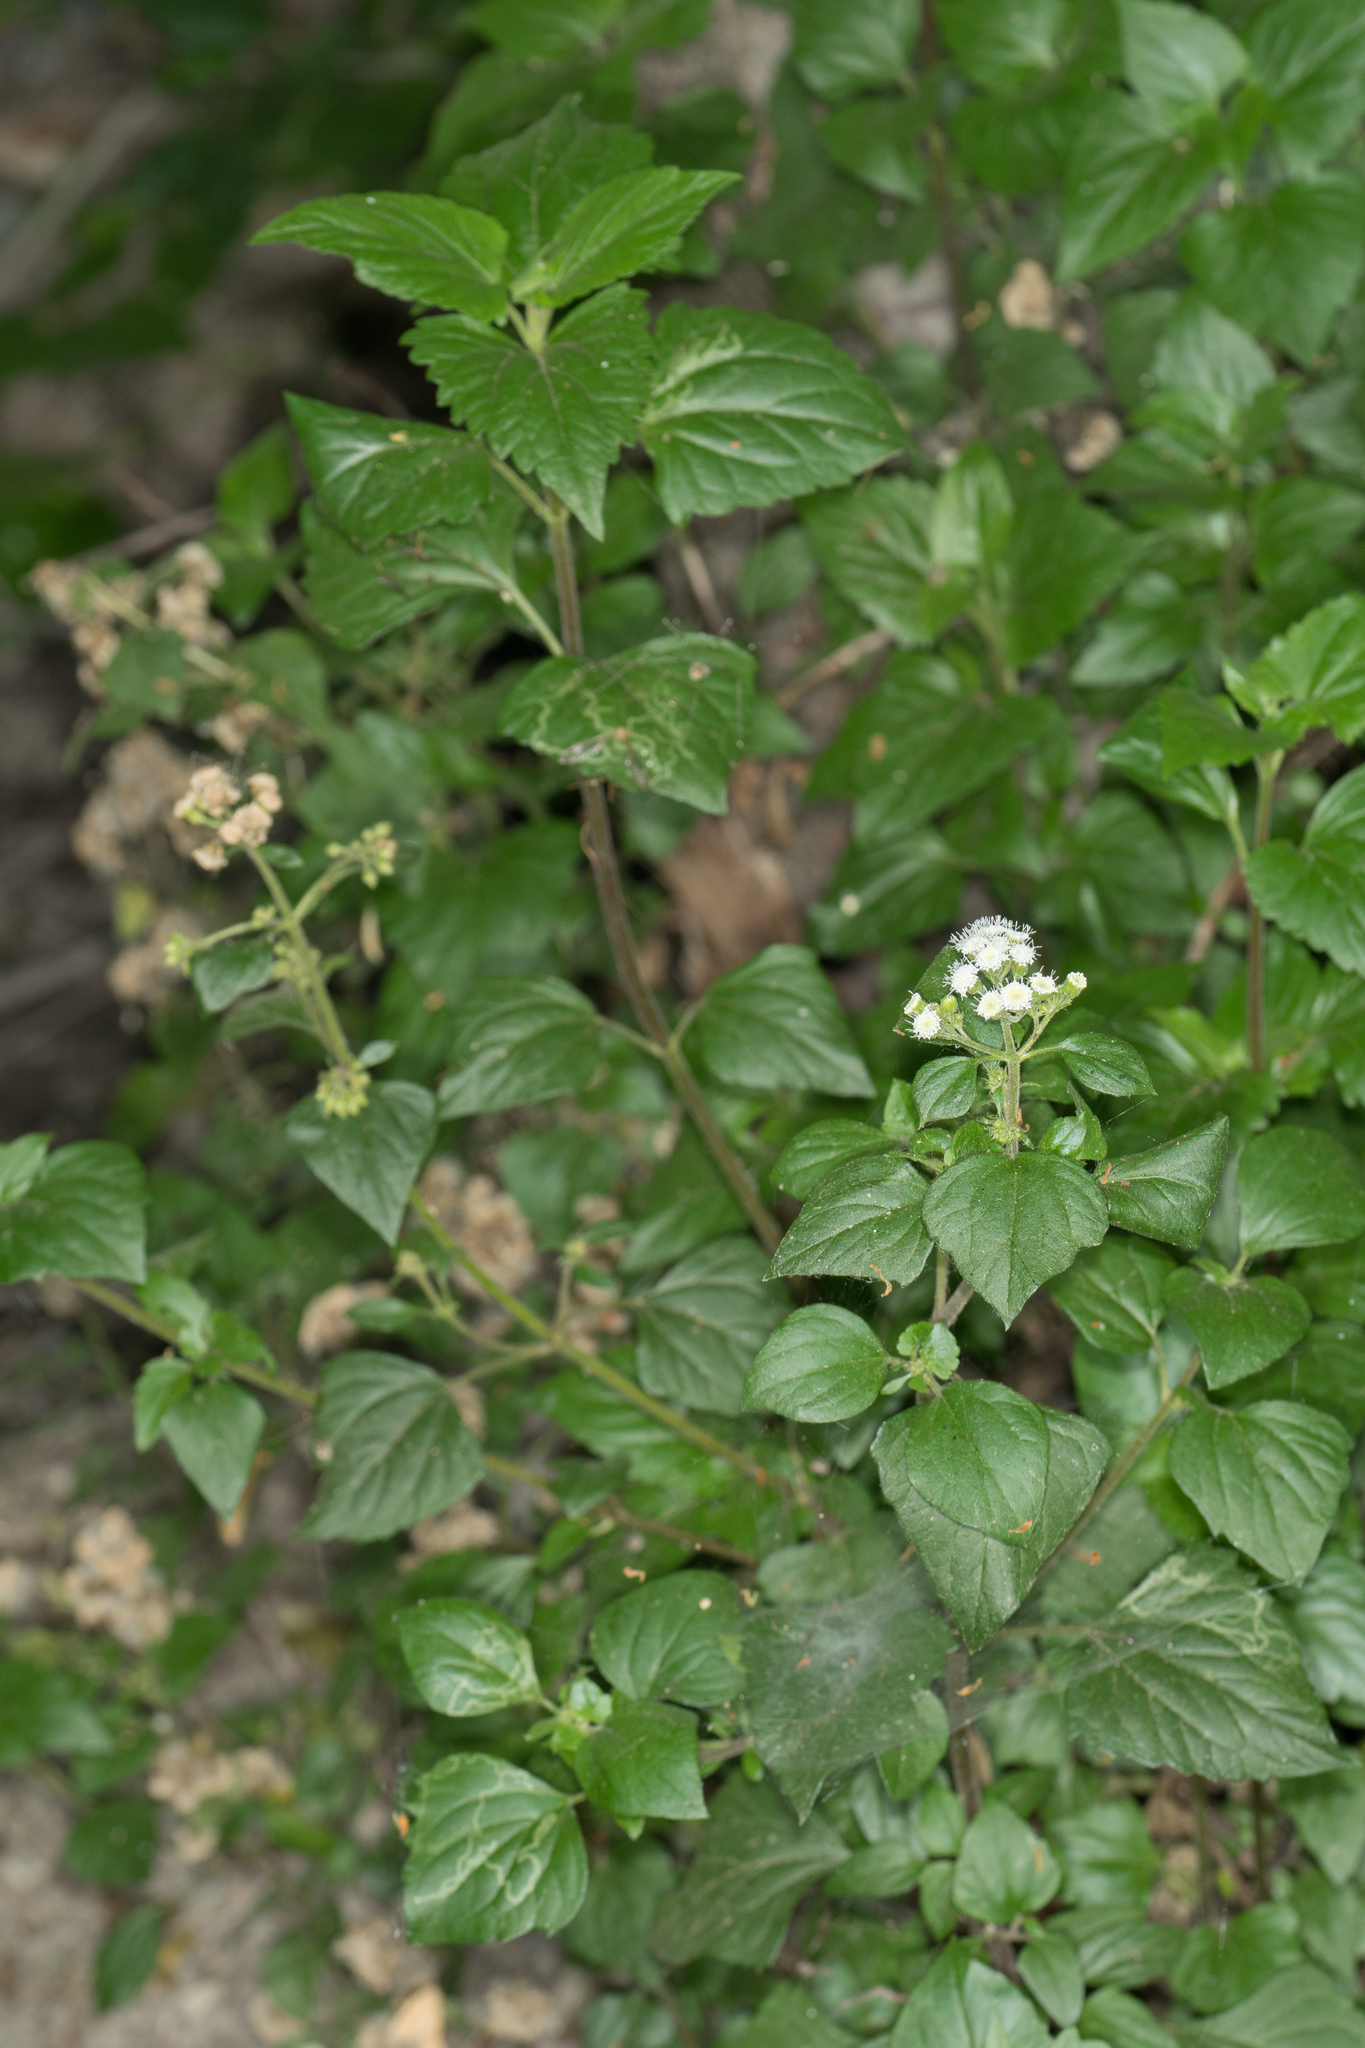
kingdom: Plantae
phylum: Tracheophyta
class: Magnoliopsida
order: Asterales
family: Asteraceae
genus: Ageratina
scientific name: Ageratina adenophora
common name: Sticky snakeroot
